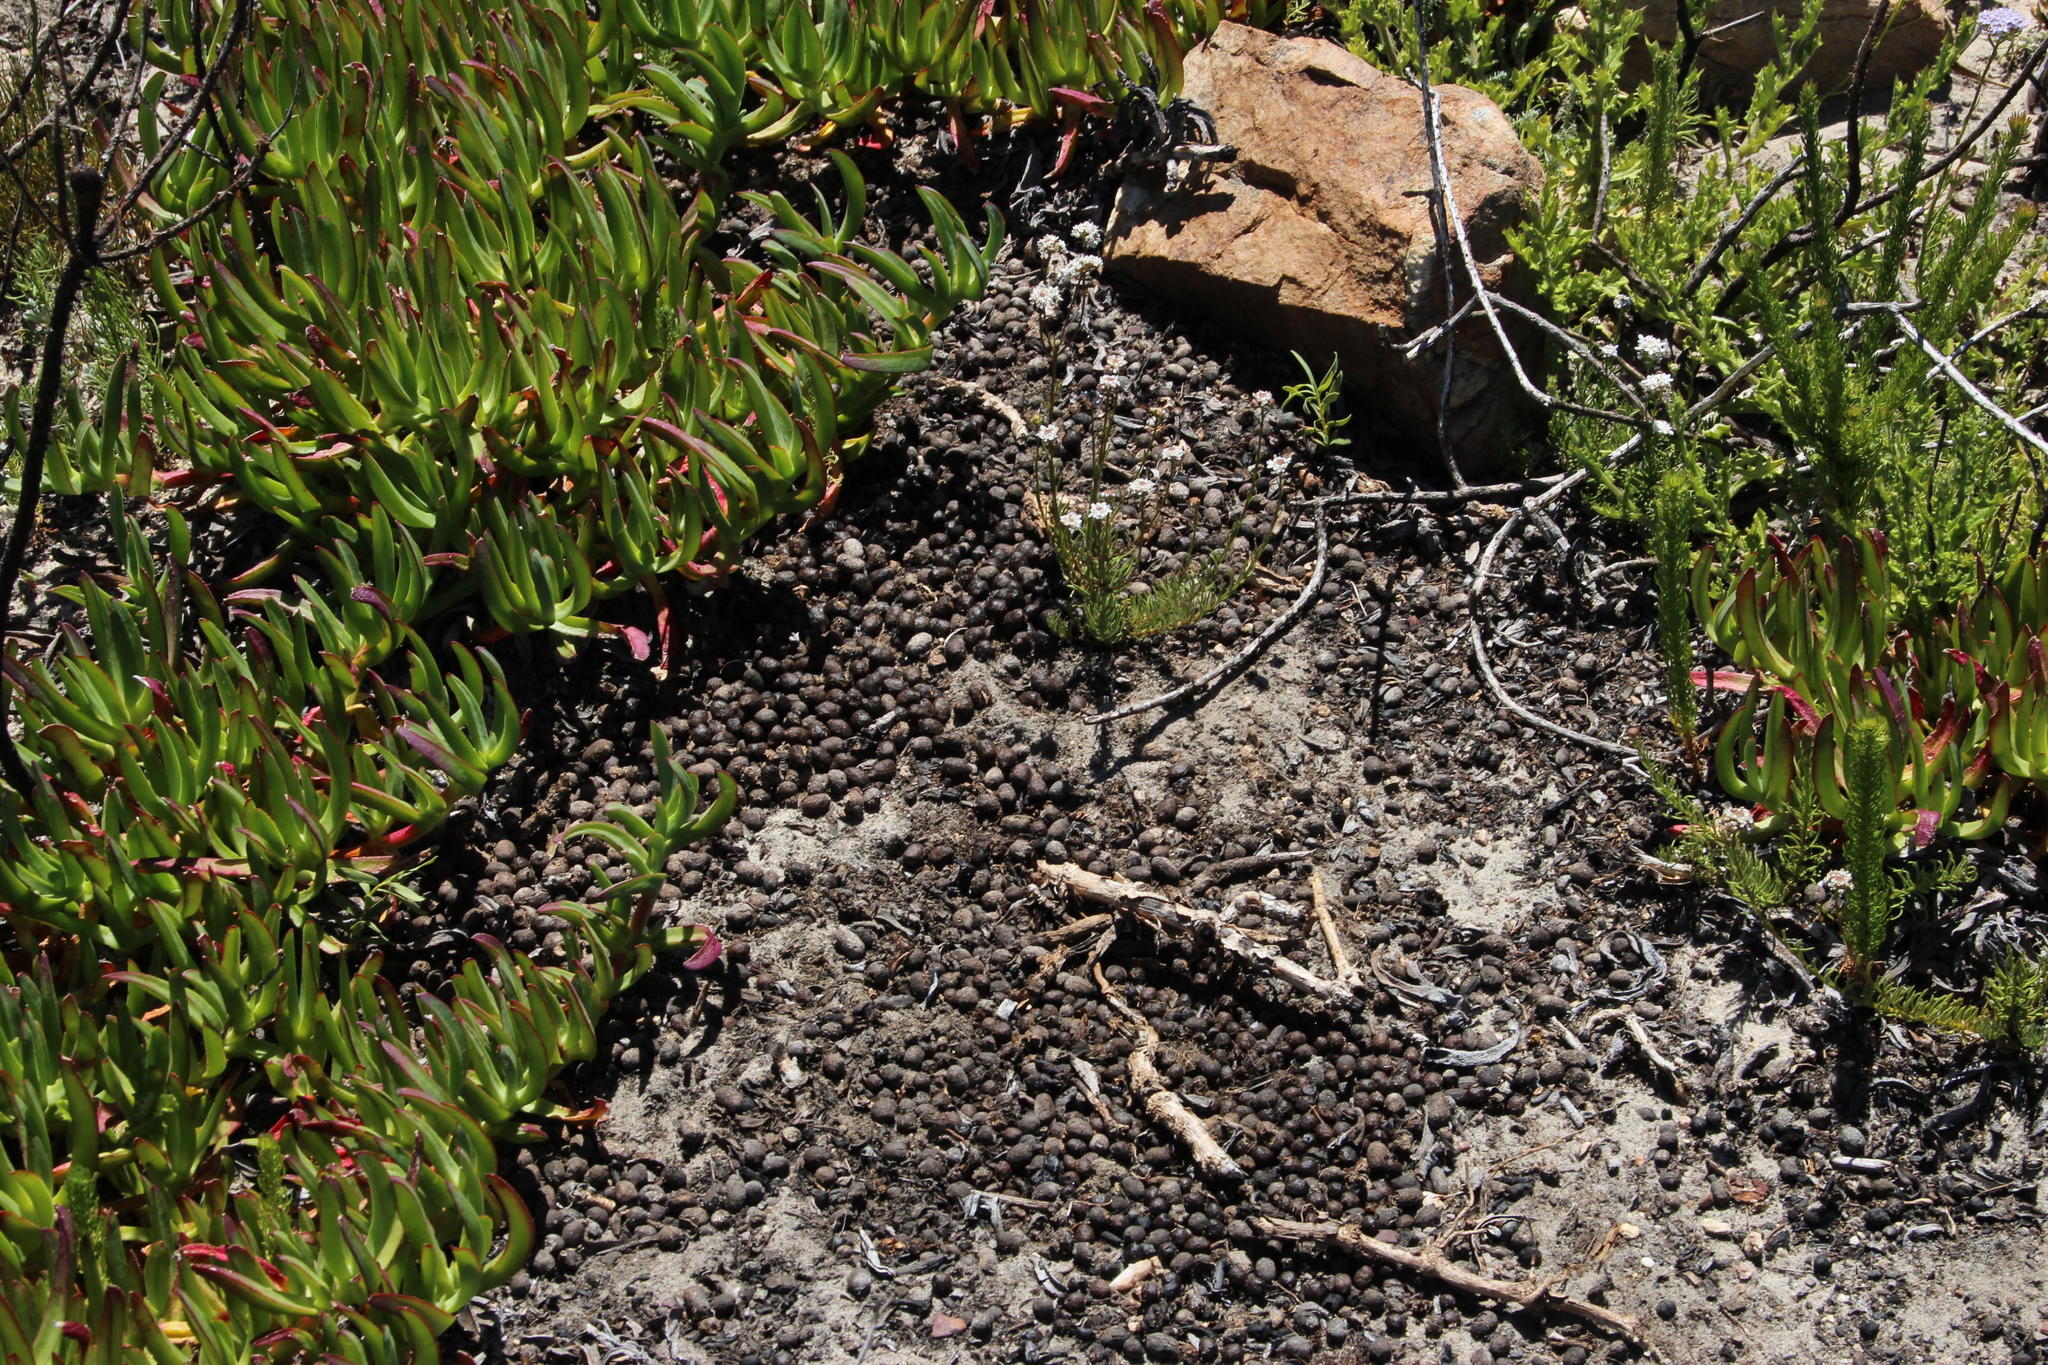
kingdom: Plantae
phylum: Tracheophyta
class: Magnoliopsida
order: Caryophyllales
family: Aizoaceae
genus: Carpobrotus
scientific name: Carpobrotus edulis
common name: Hottentot-fig
